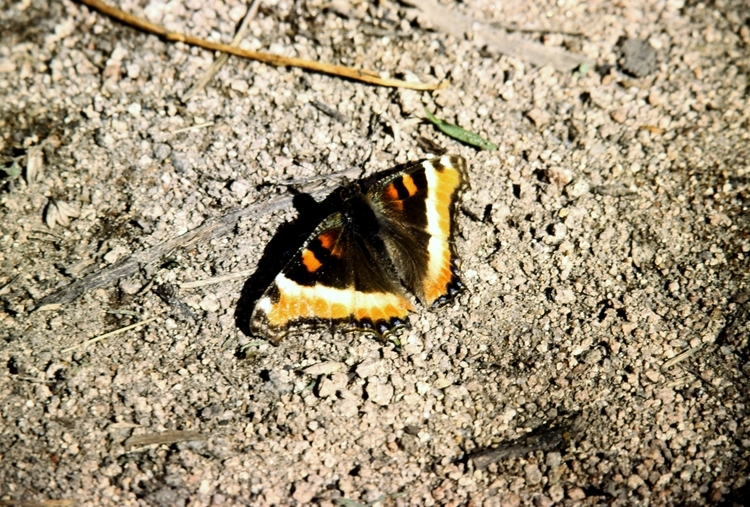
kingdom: Animalia
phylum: Arthropoda
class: Insecta
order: Lepidoptera
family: Nymphalidae
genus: Aglais
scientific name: Aglais milberti
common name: Milbert's tortoiseshell
